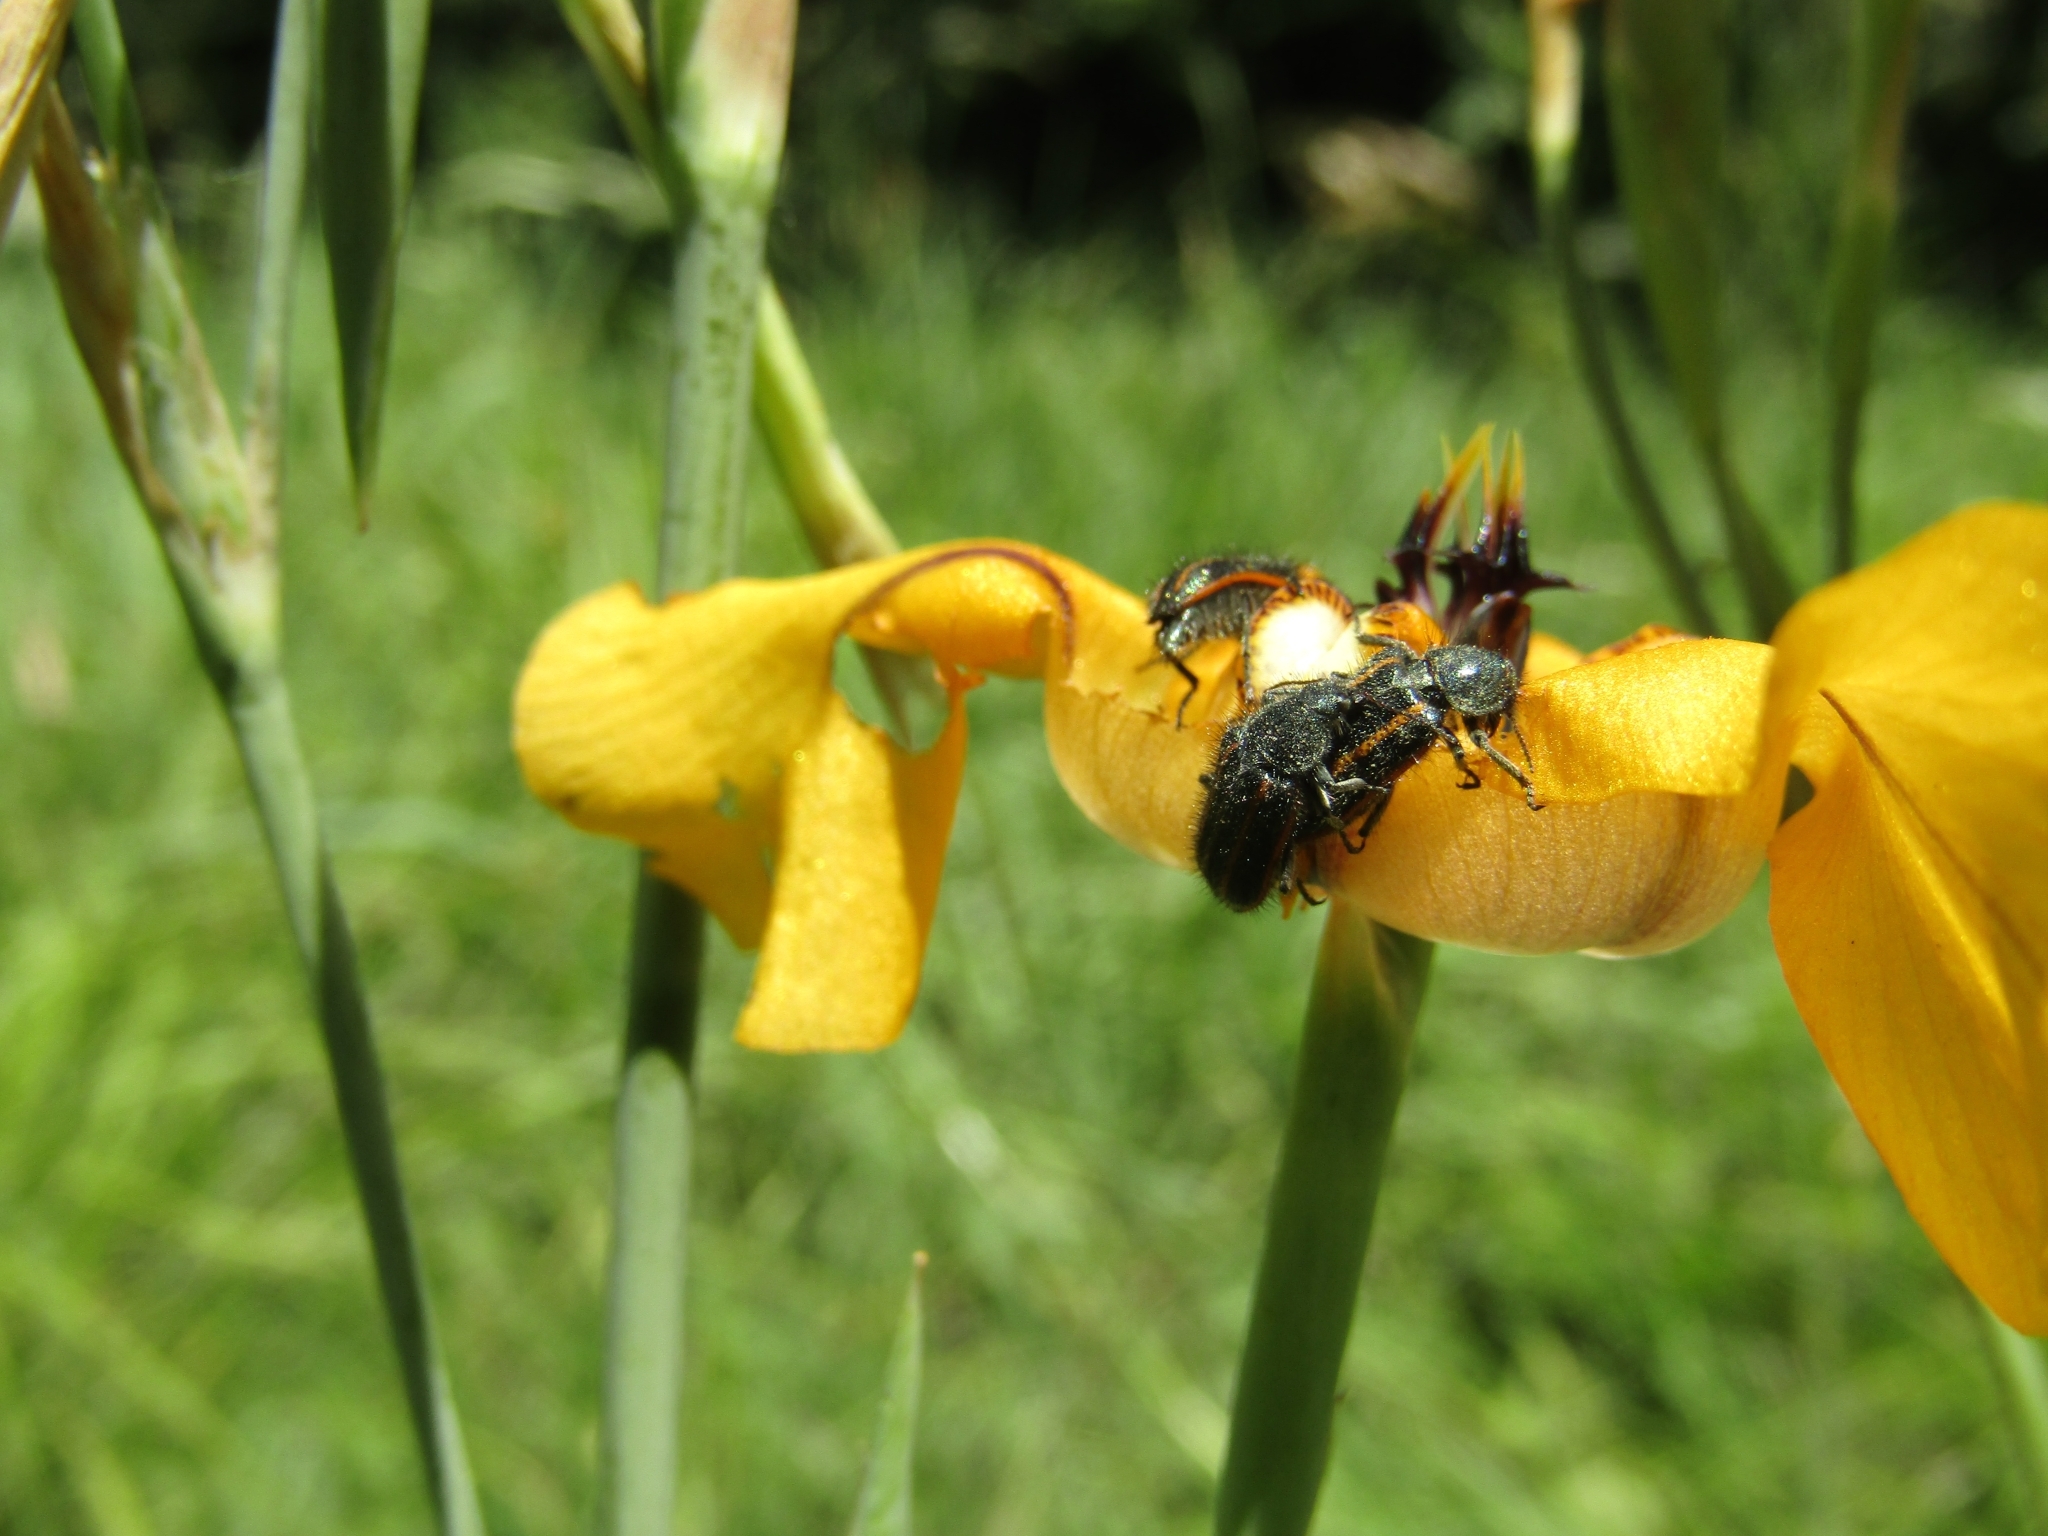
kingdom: Animalia
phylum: Arthropoda
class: Insecta
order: Coleoptera
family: Melyridae
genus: Astylus
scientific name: Astylus
